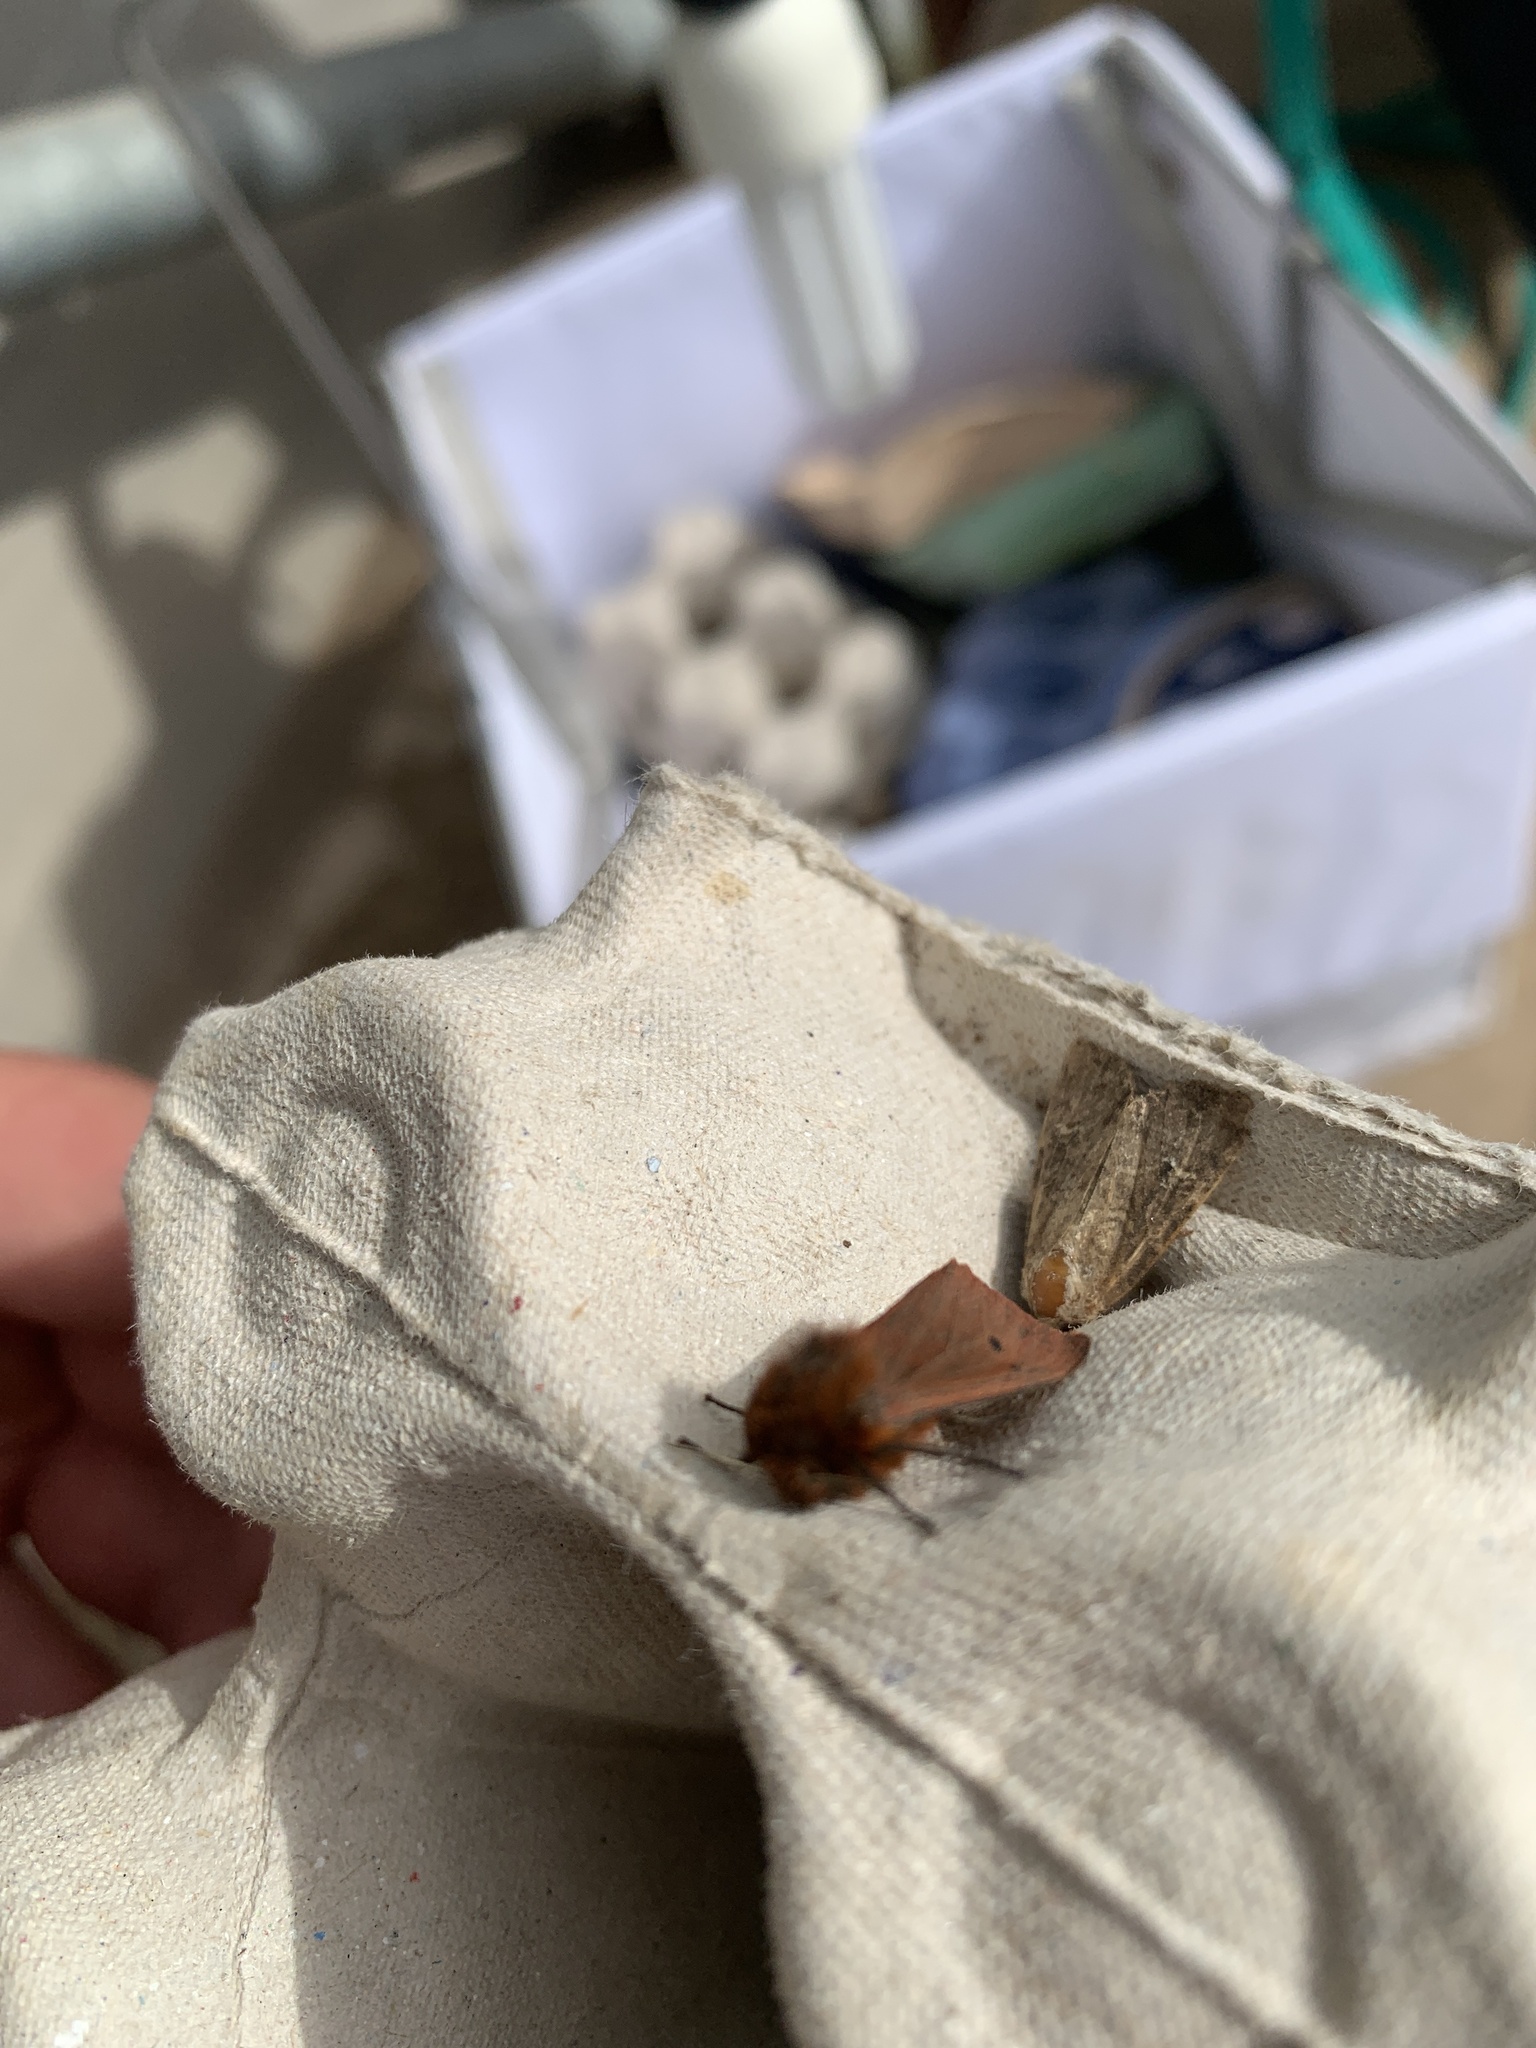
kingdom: Animalia
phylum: Arthropoda
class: Insecta
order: Lepidoptera
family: Erebidae
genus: Phragmatobia
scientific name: Phragmatobia fuliginosa
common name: Ruby tiger
